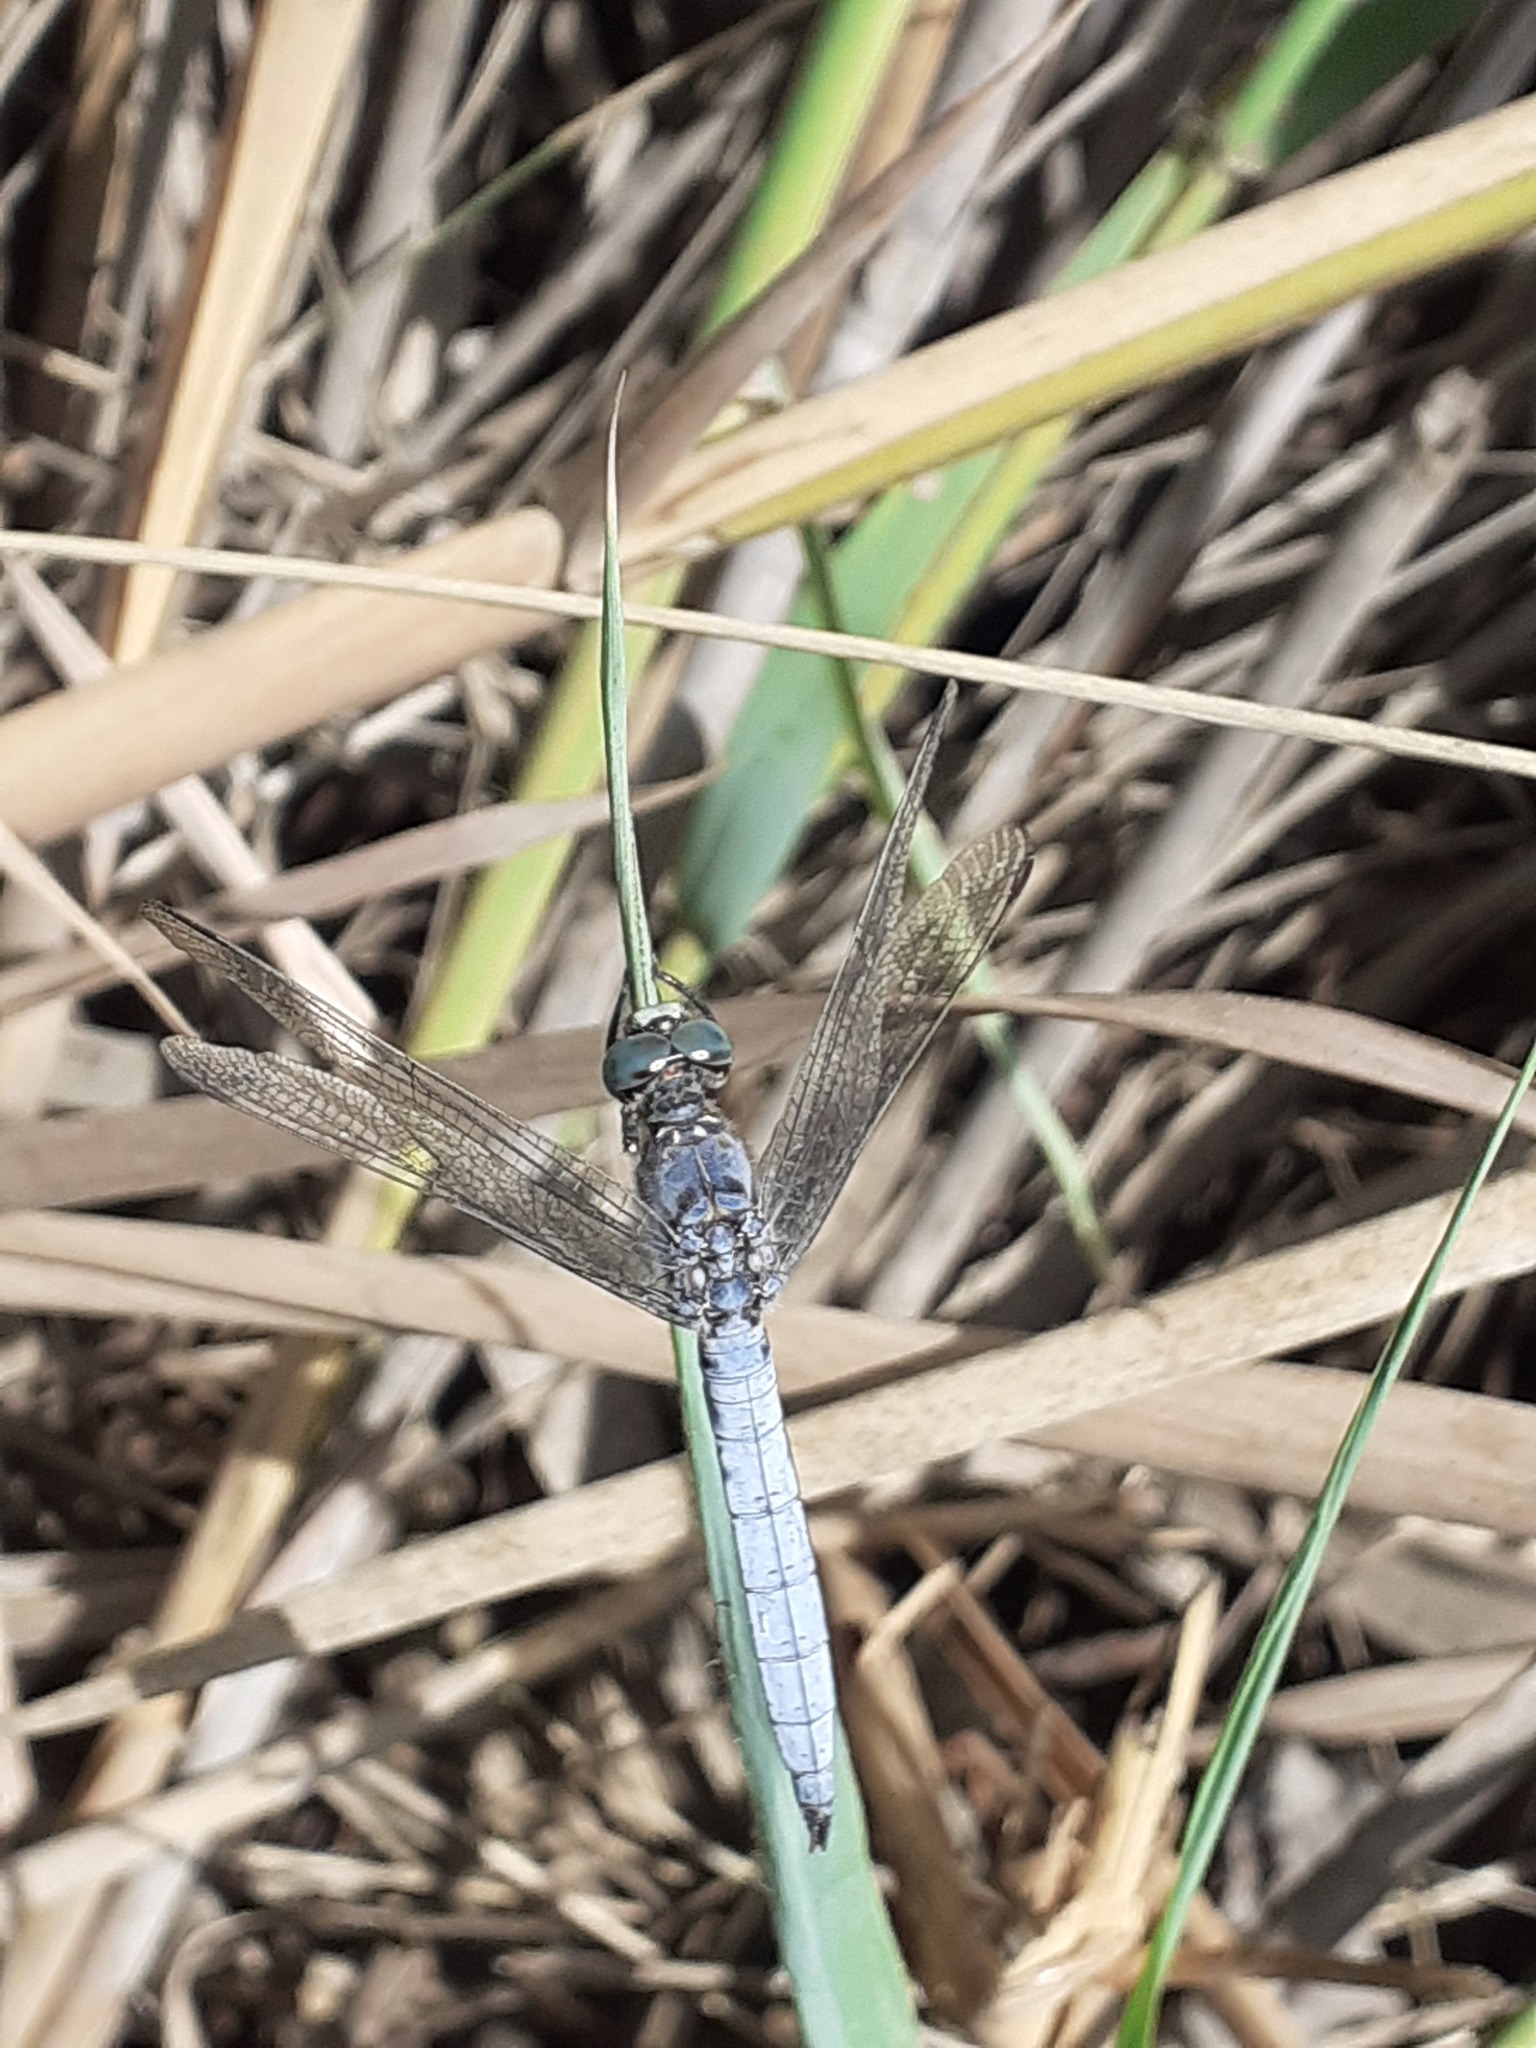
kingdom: Animalia
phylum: Arthropoda
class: Insecta
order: Odonata
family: Libellulidae
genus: Orthetrum
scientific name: Orthetrum coerulescens
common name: Keeled skimmer
